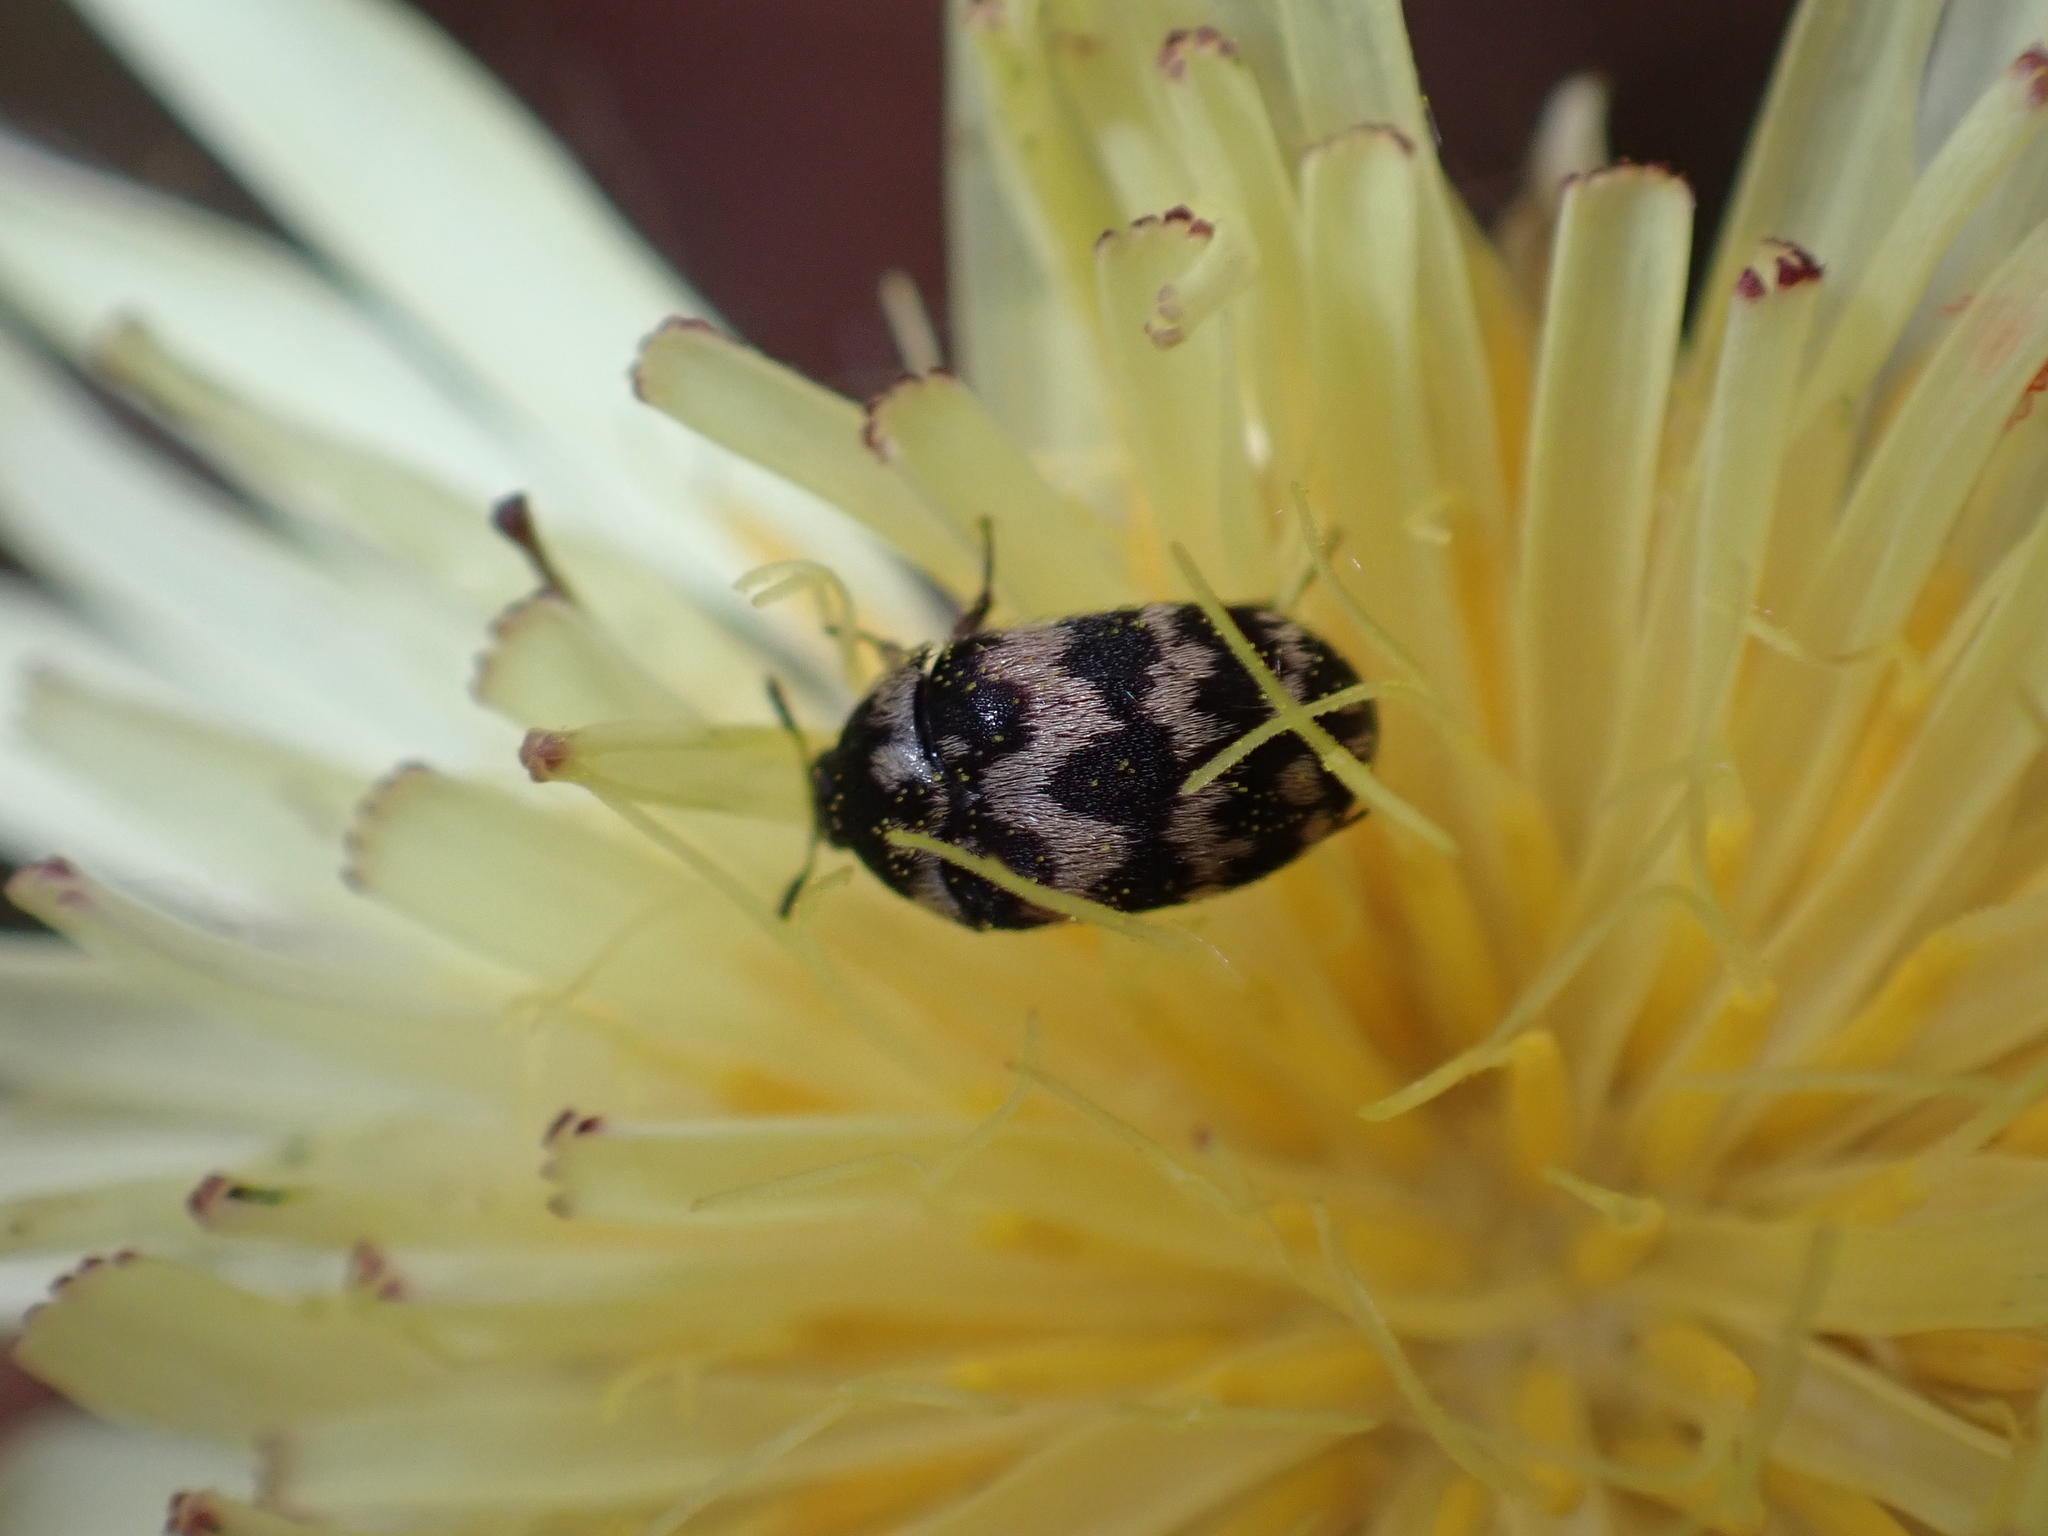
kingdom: Animalia
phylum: Arthropoda
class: Insecta
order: Coleoptera
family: Dermestidae
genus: Attagenus
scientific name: Attagenus trifasciatus
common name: Carpet beetle
